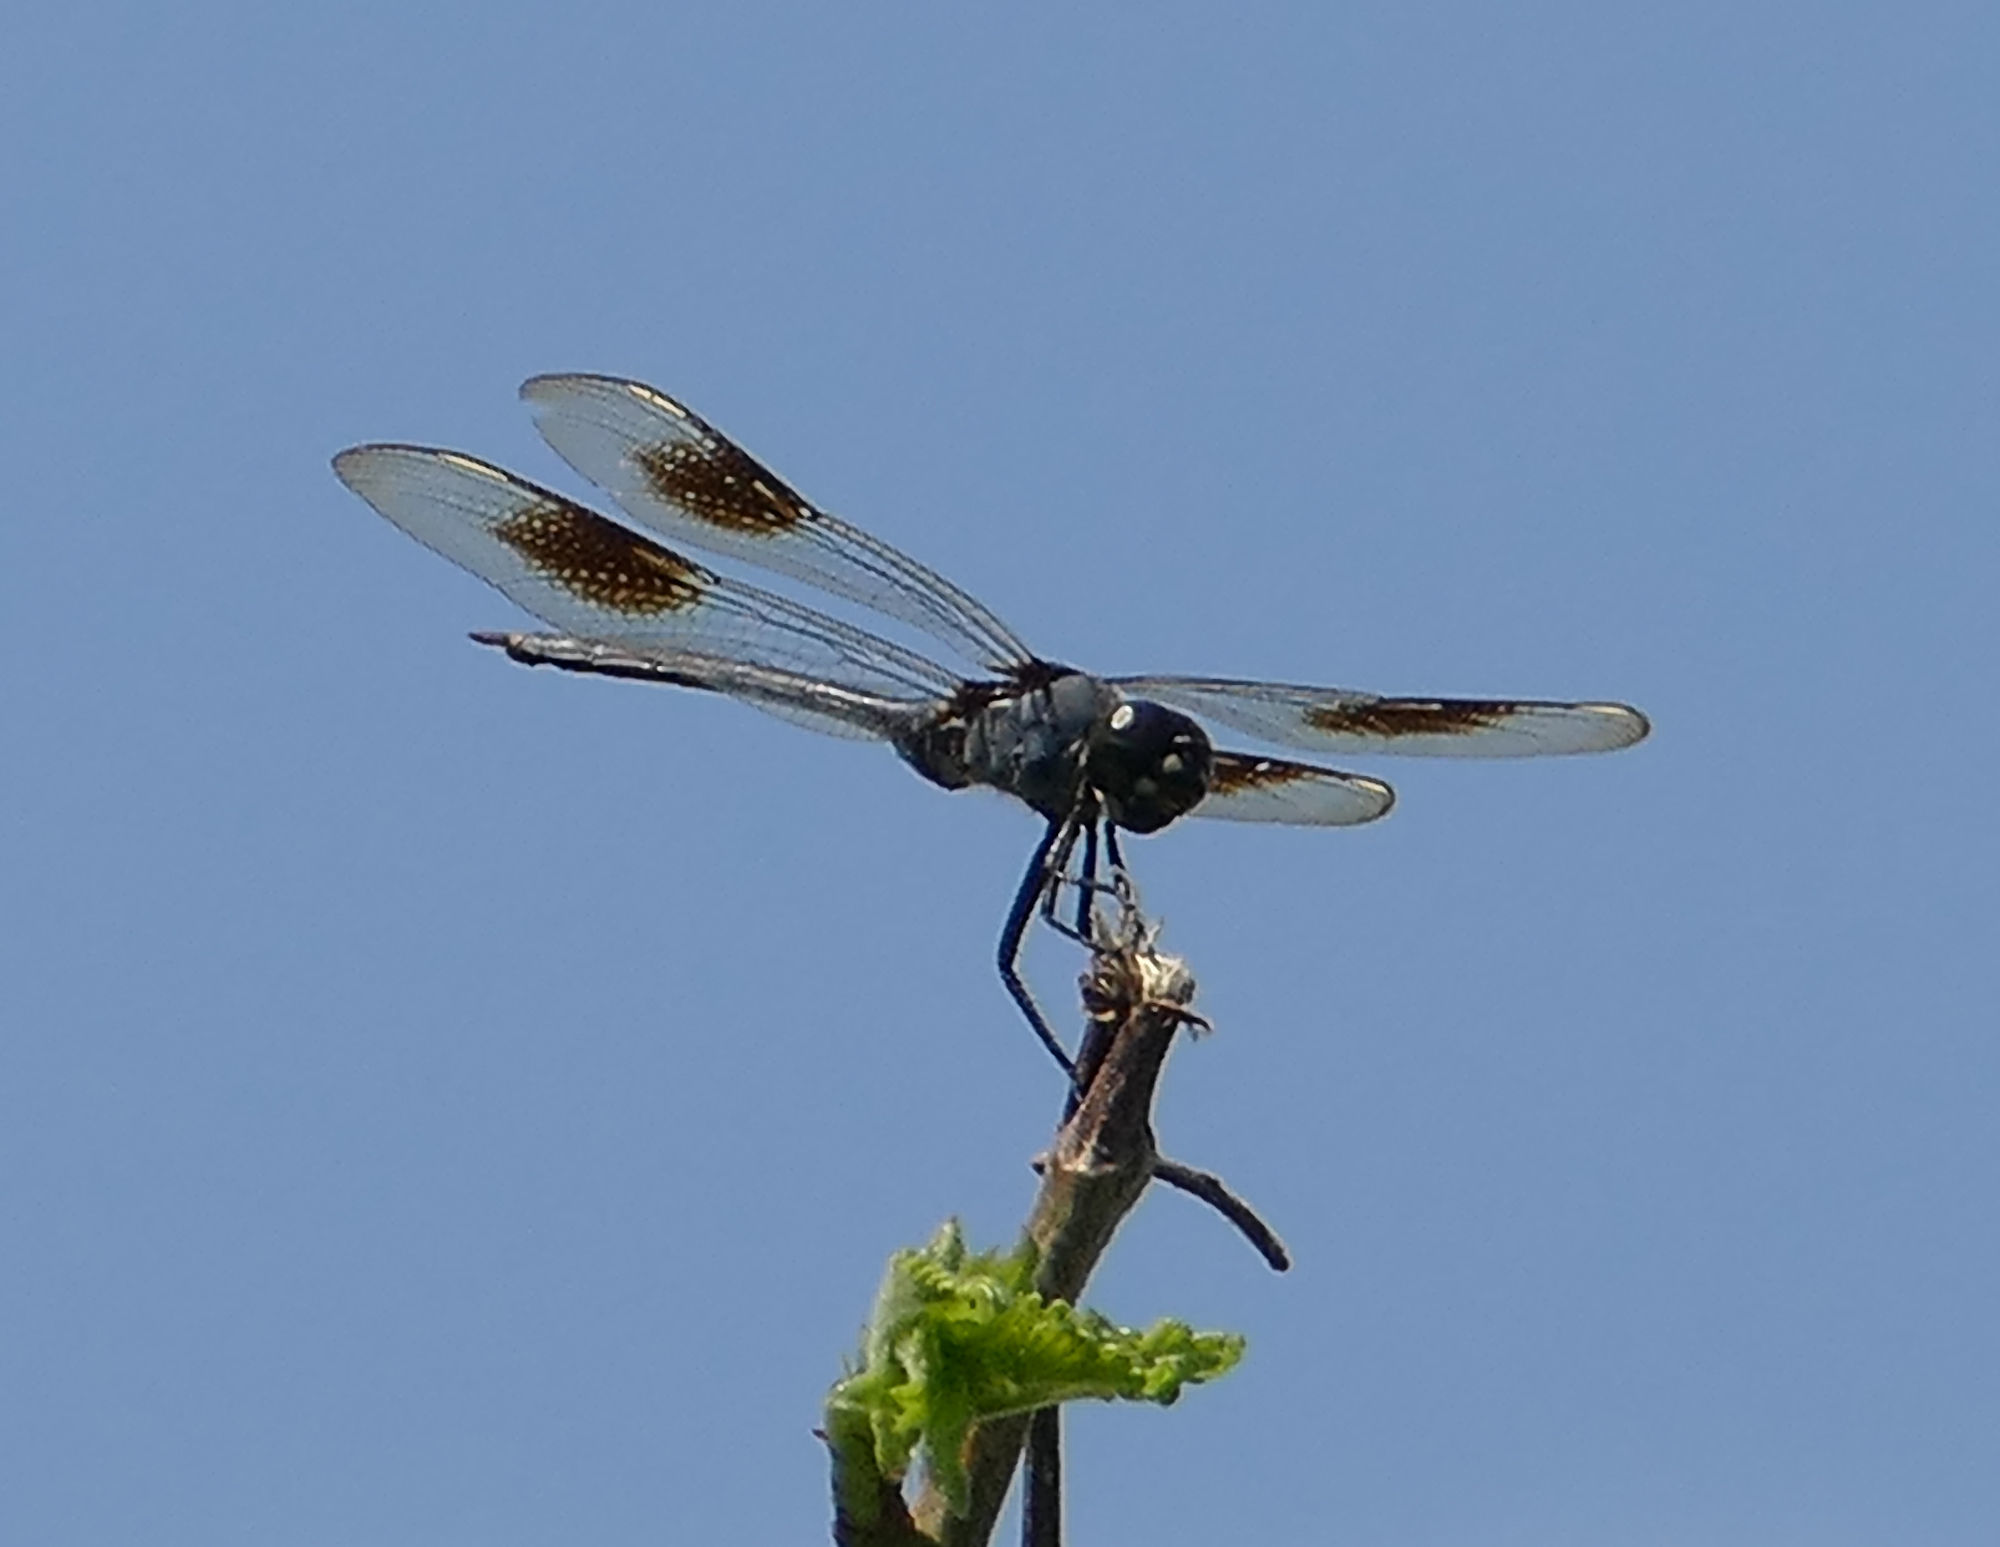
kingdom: Animalia
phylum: Arthropoda
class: Insecta
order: Odonata
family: Libellulidae
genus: Brachymesia
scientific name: Brachymesia gravida
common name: Four-spotted pennant
